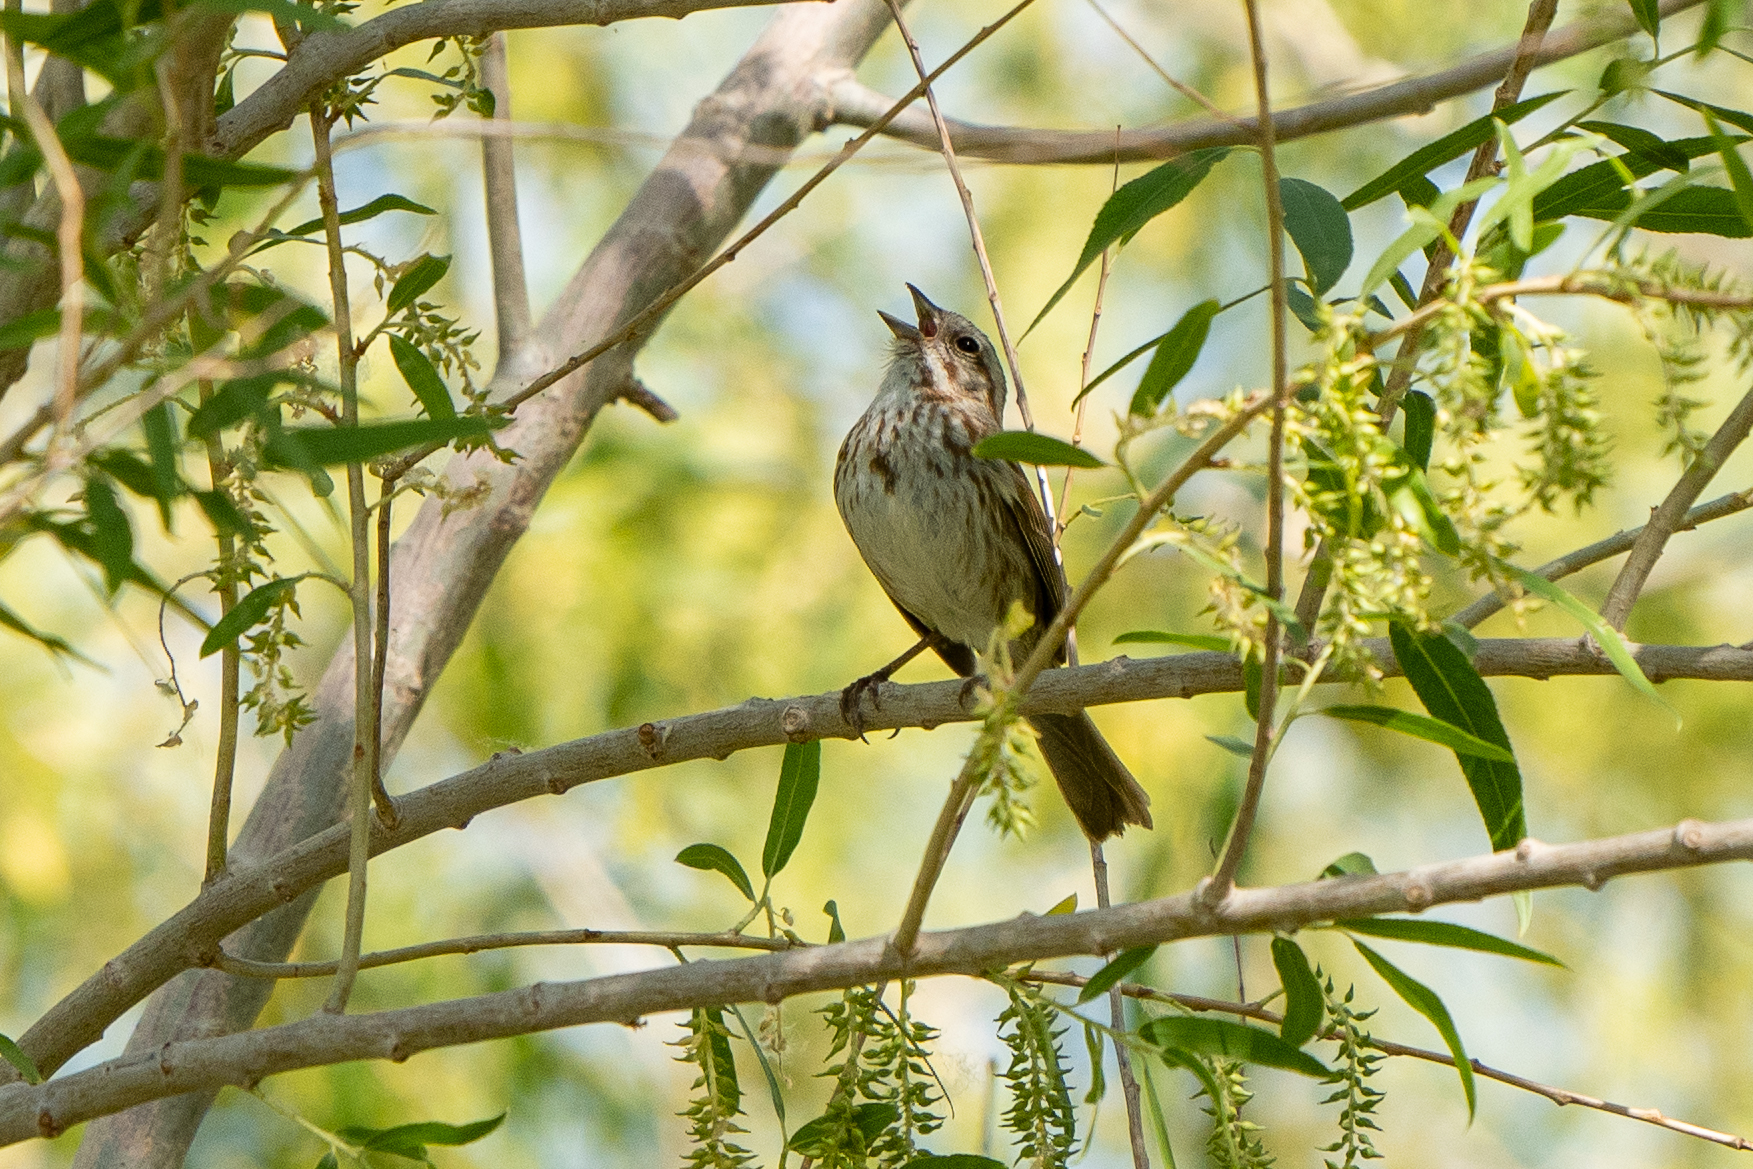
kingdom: Animalia
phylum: Chordata
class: Aves
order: Passeriformes
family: Passerellidae
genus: Melospiza
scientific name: Melospiza melodia
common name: Song sparrow
